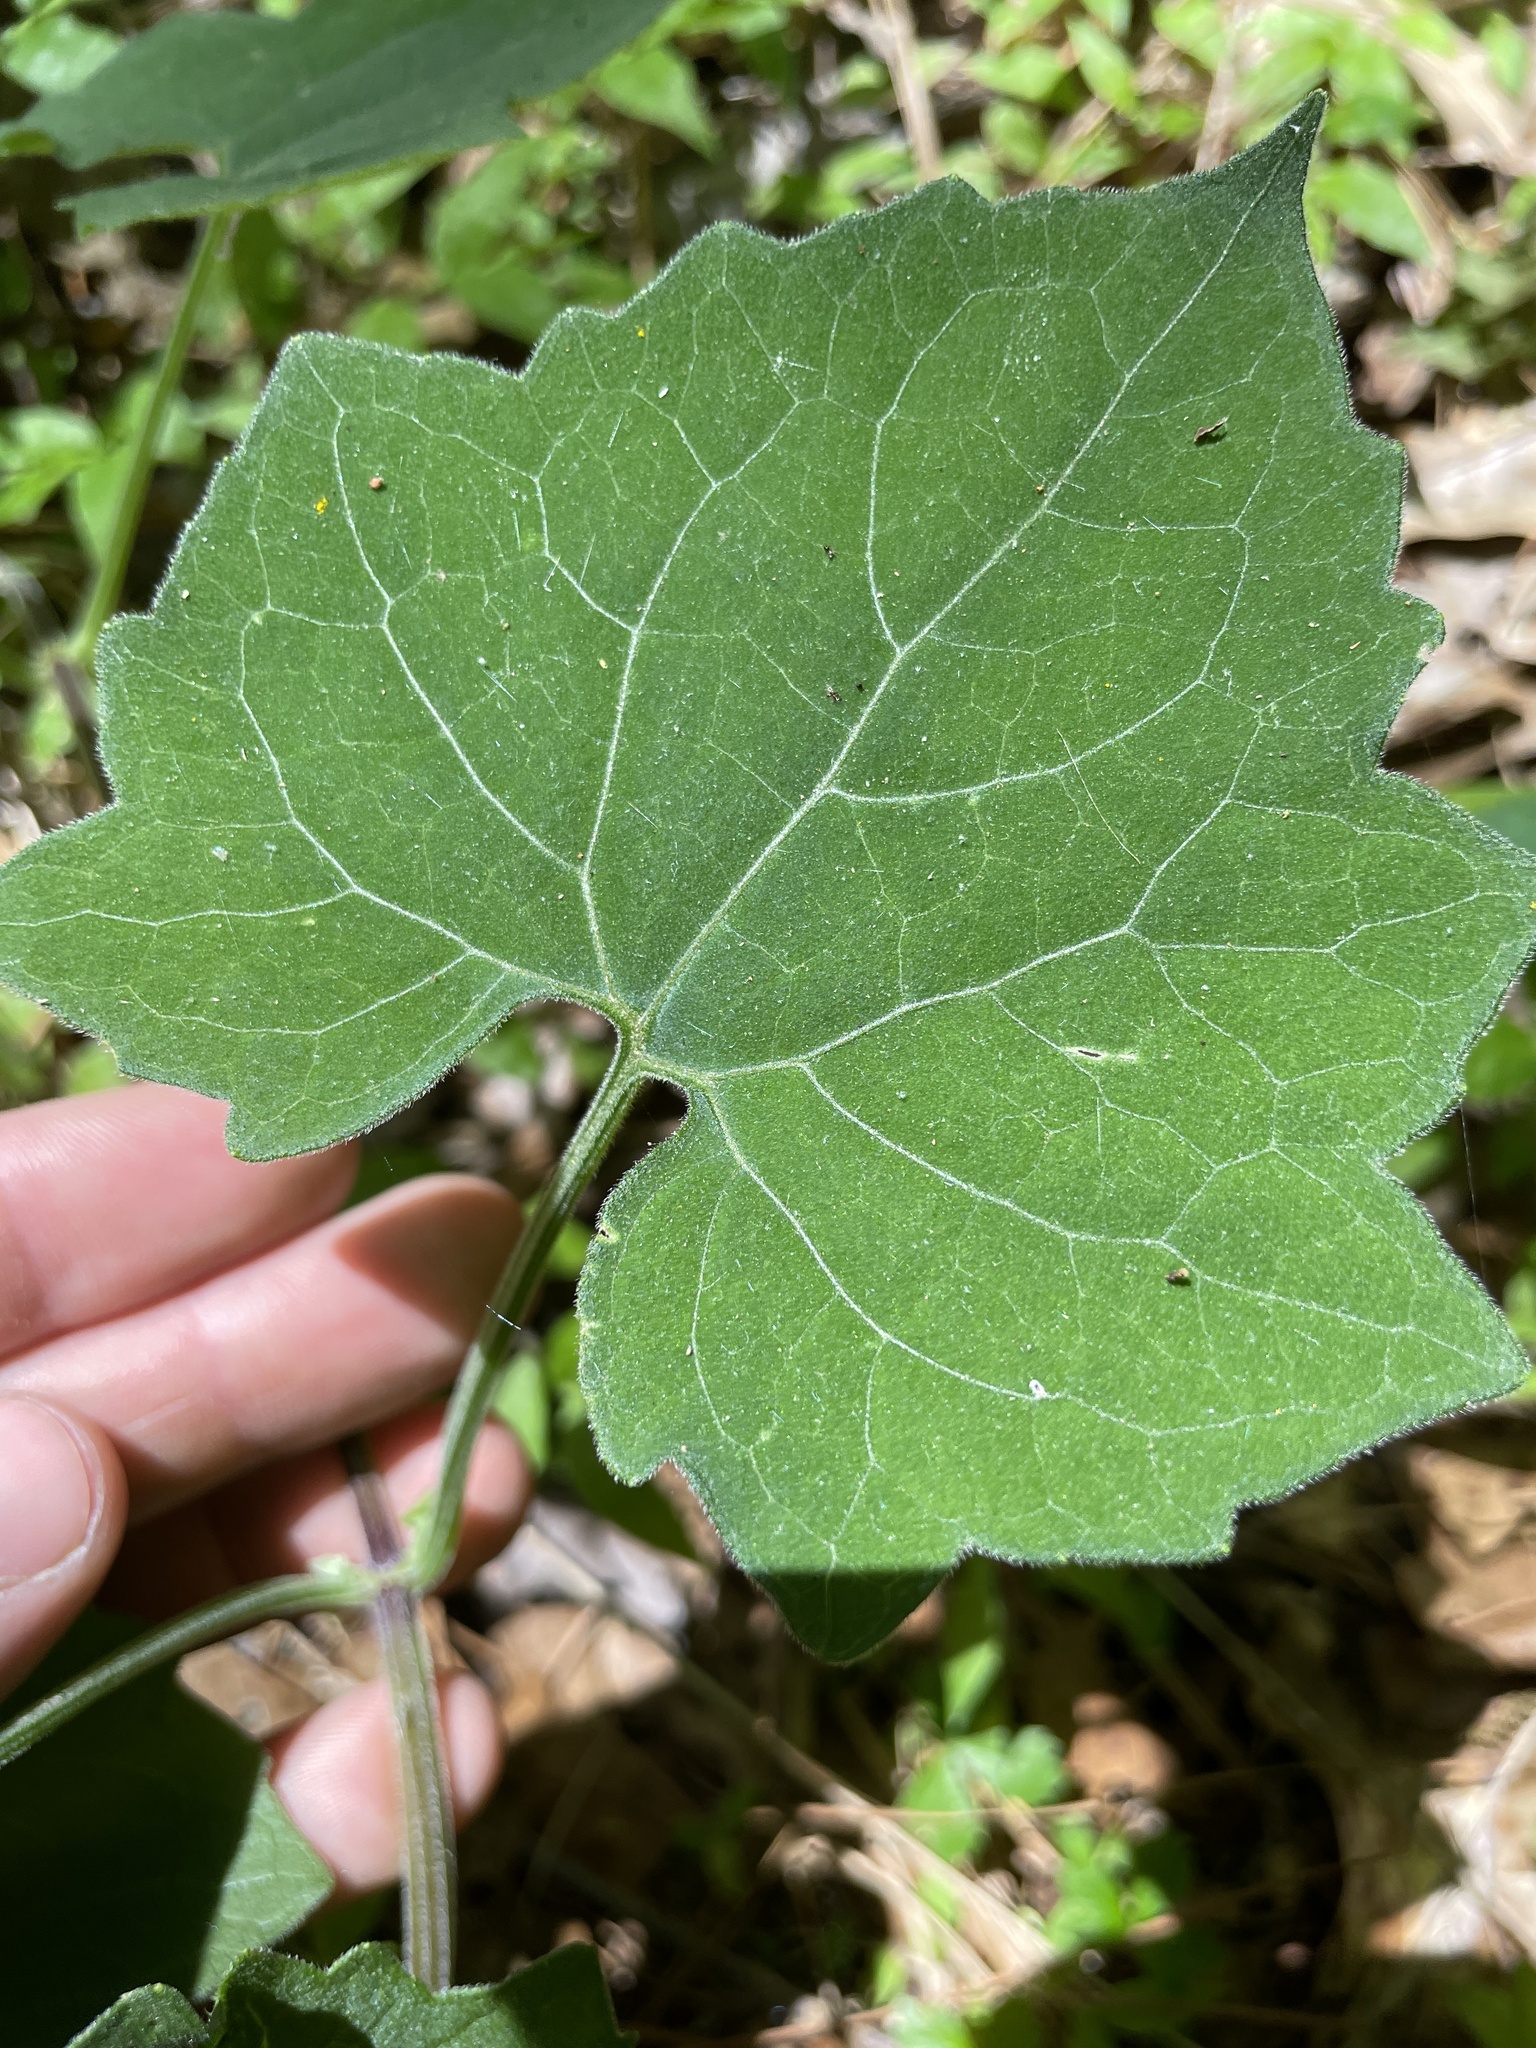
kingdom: Plantae
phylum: Tracheophyta
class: Magnoliopsida
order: Asterales
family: Asteraceae
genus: Mikania
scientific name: Mikania cordifolia
